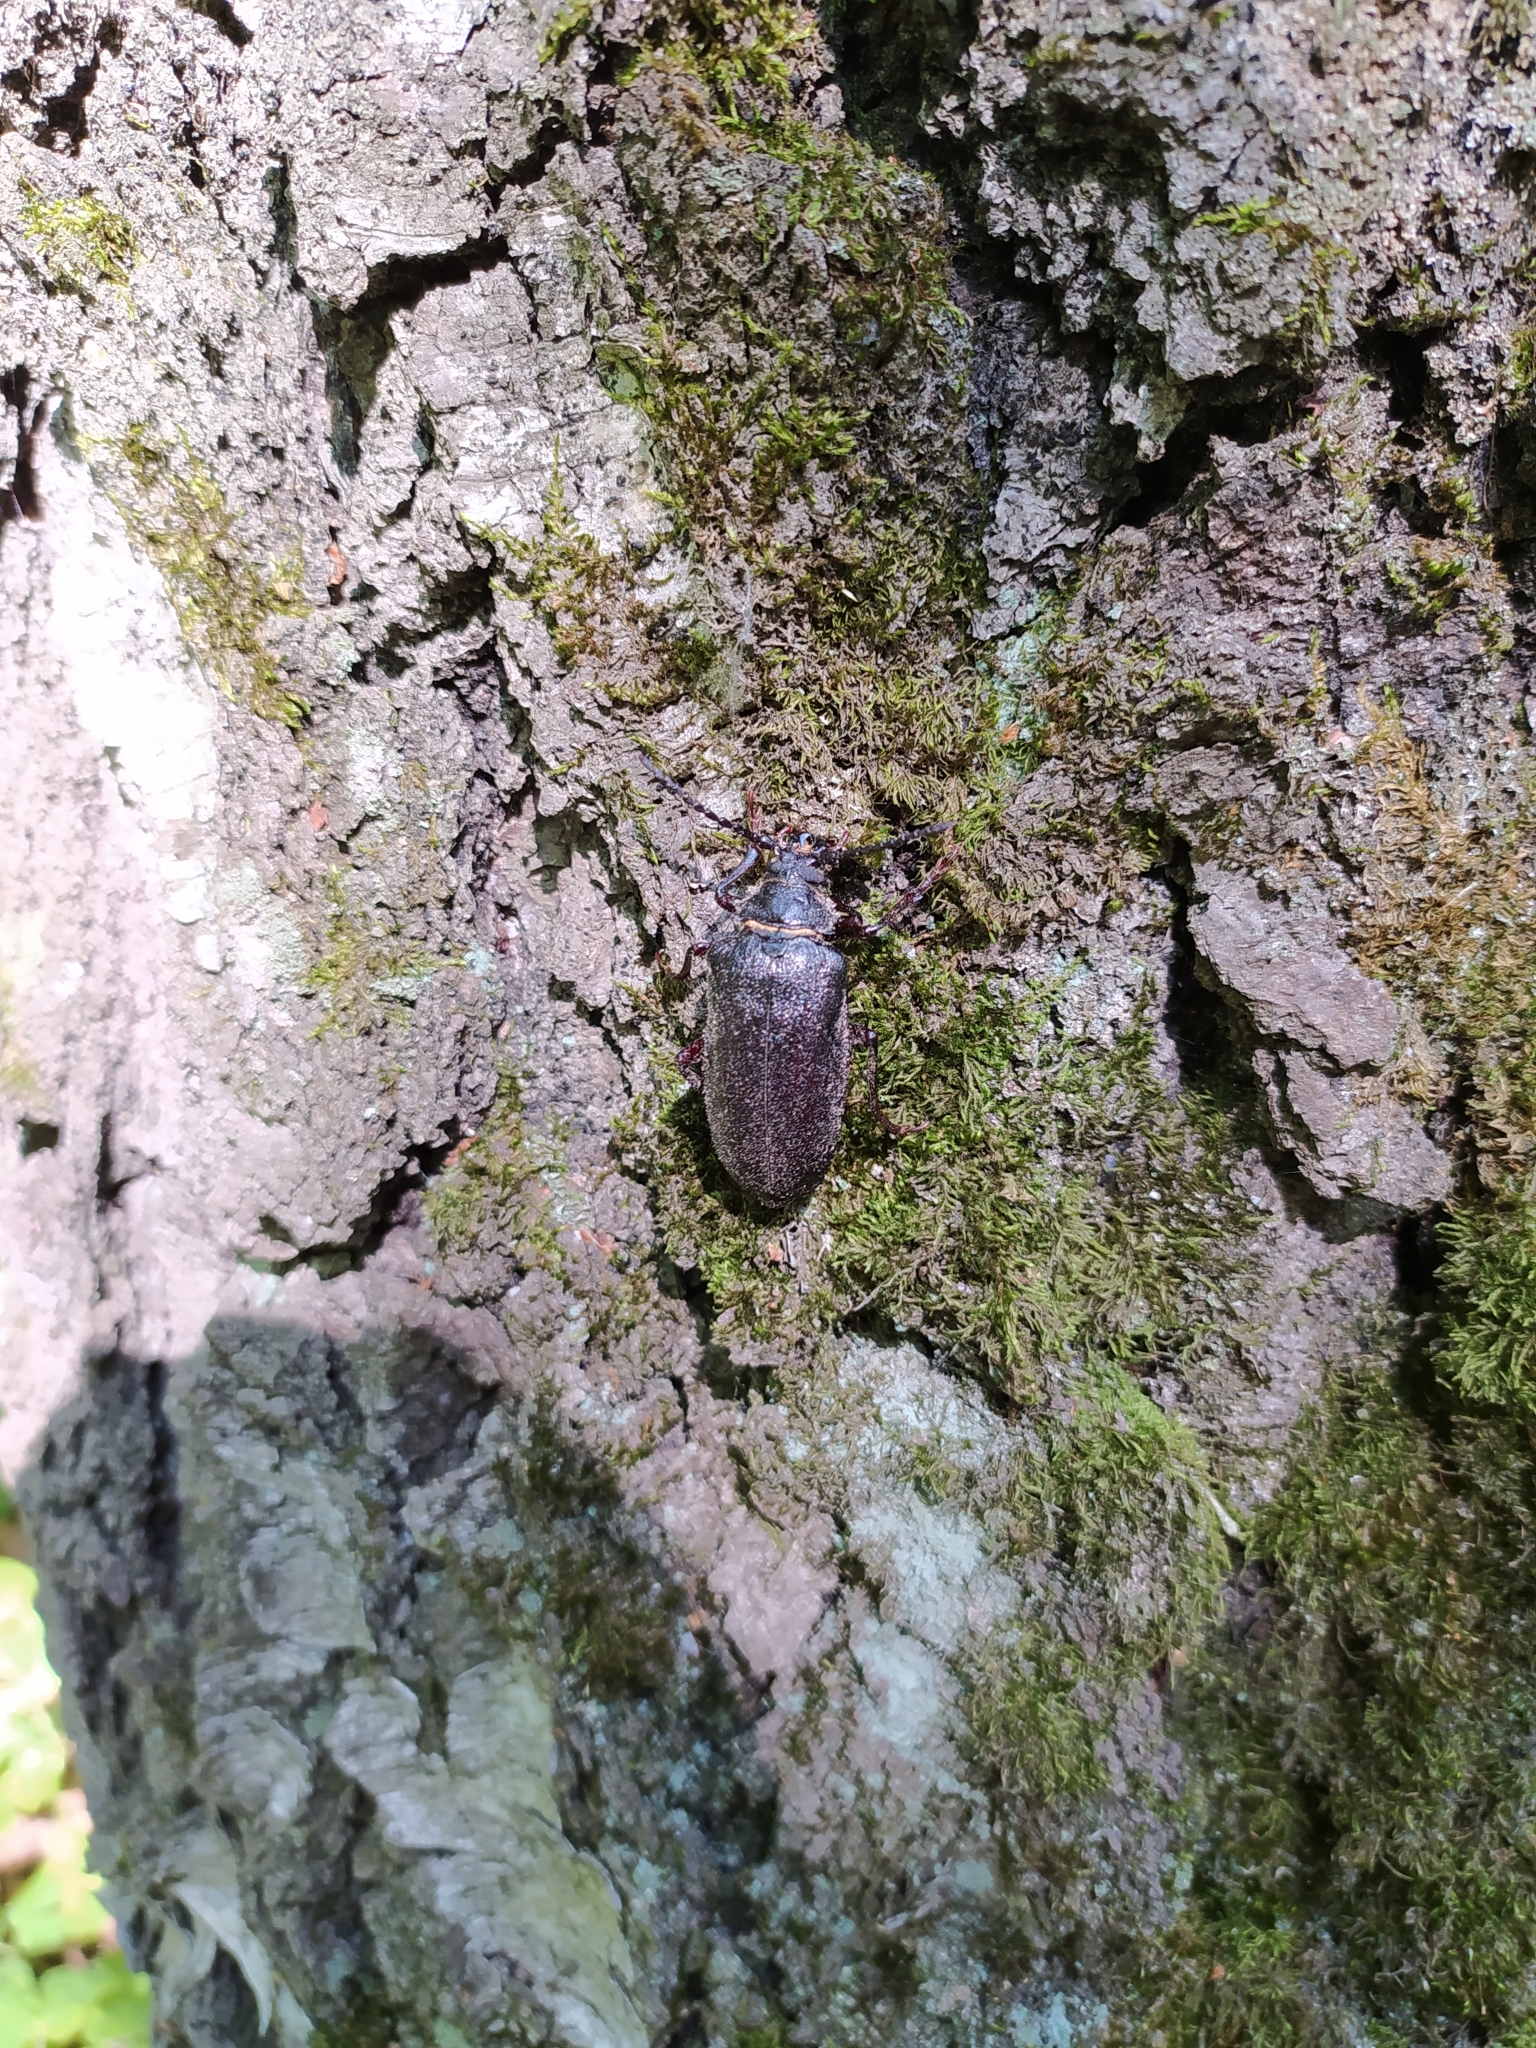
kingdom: Animalia
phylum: Arthropoda
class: Insecta
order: Coleoptera
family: Cerambycidae
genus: Prionus
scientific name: Prionus coriarius
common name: Tanner beetle
